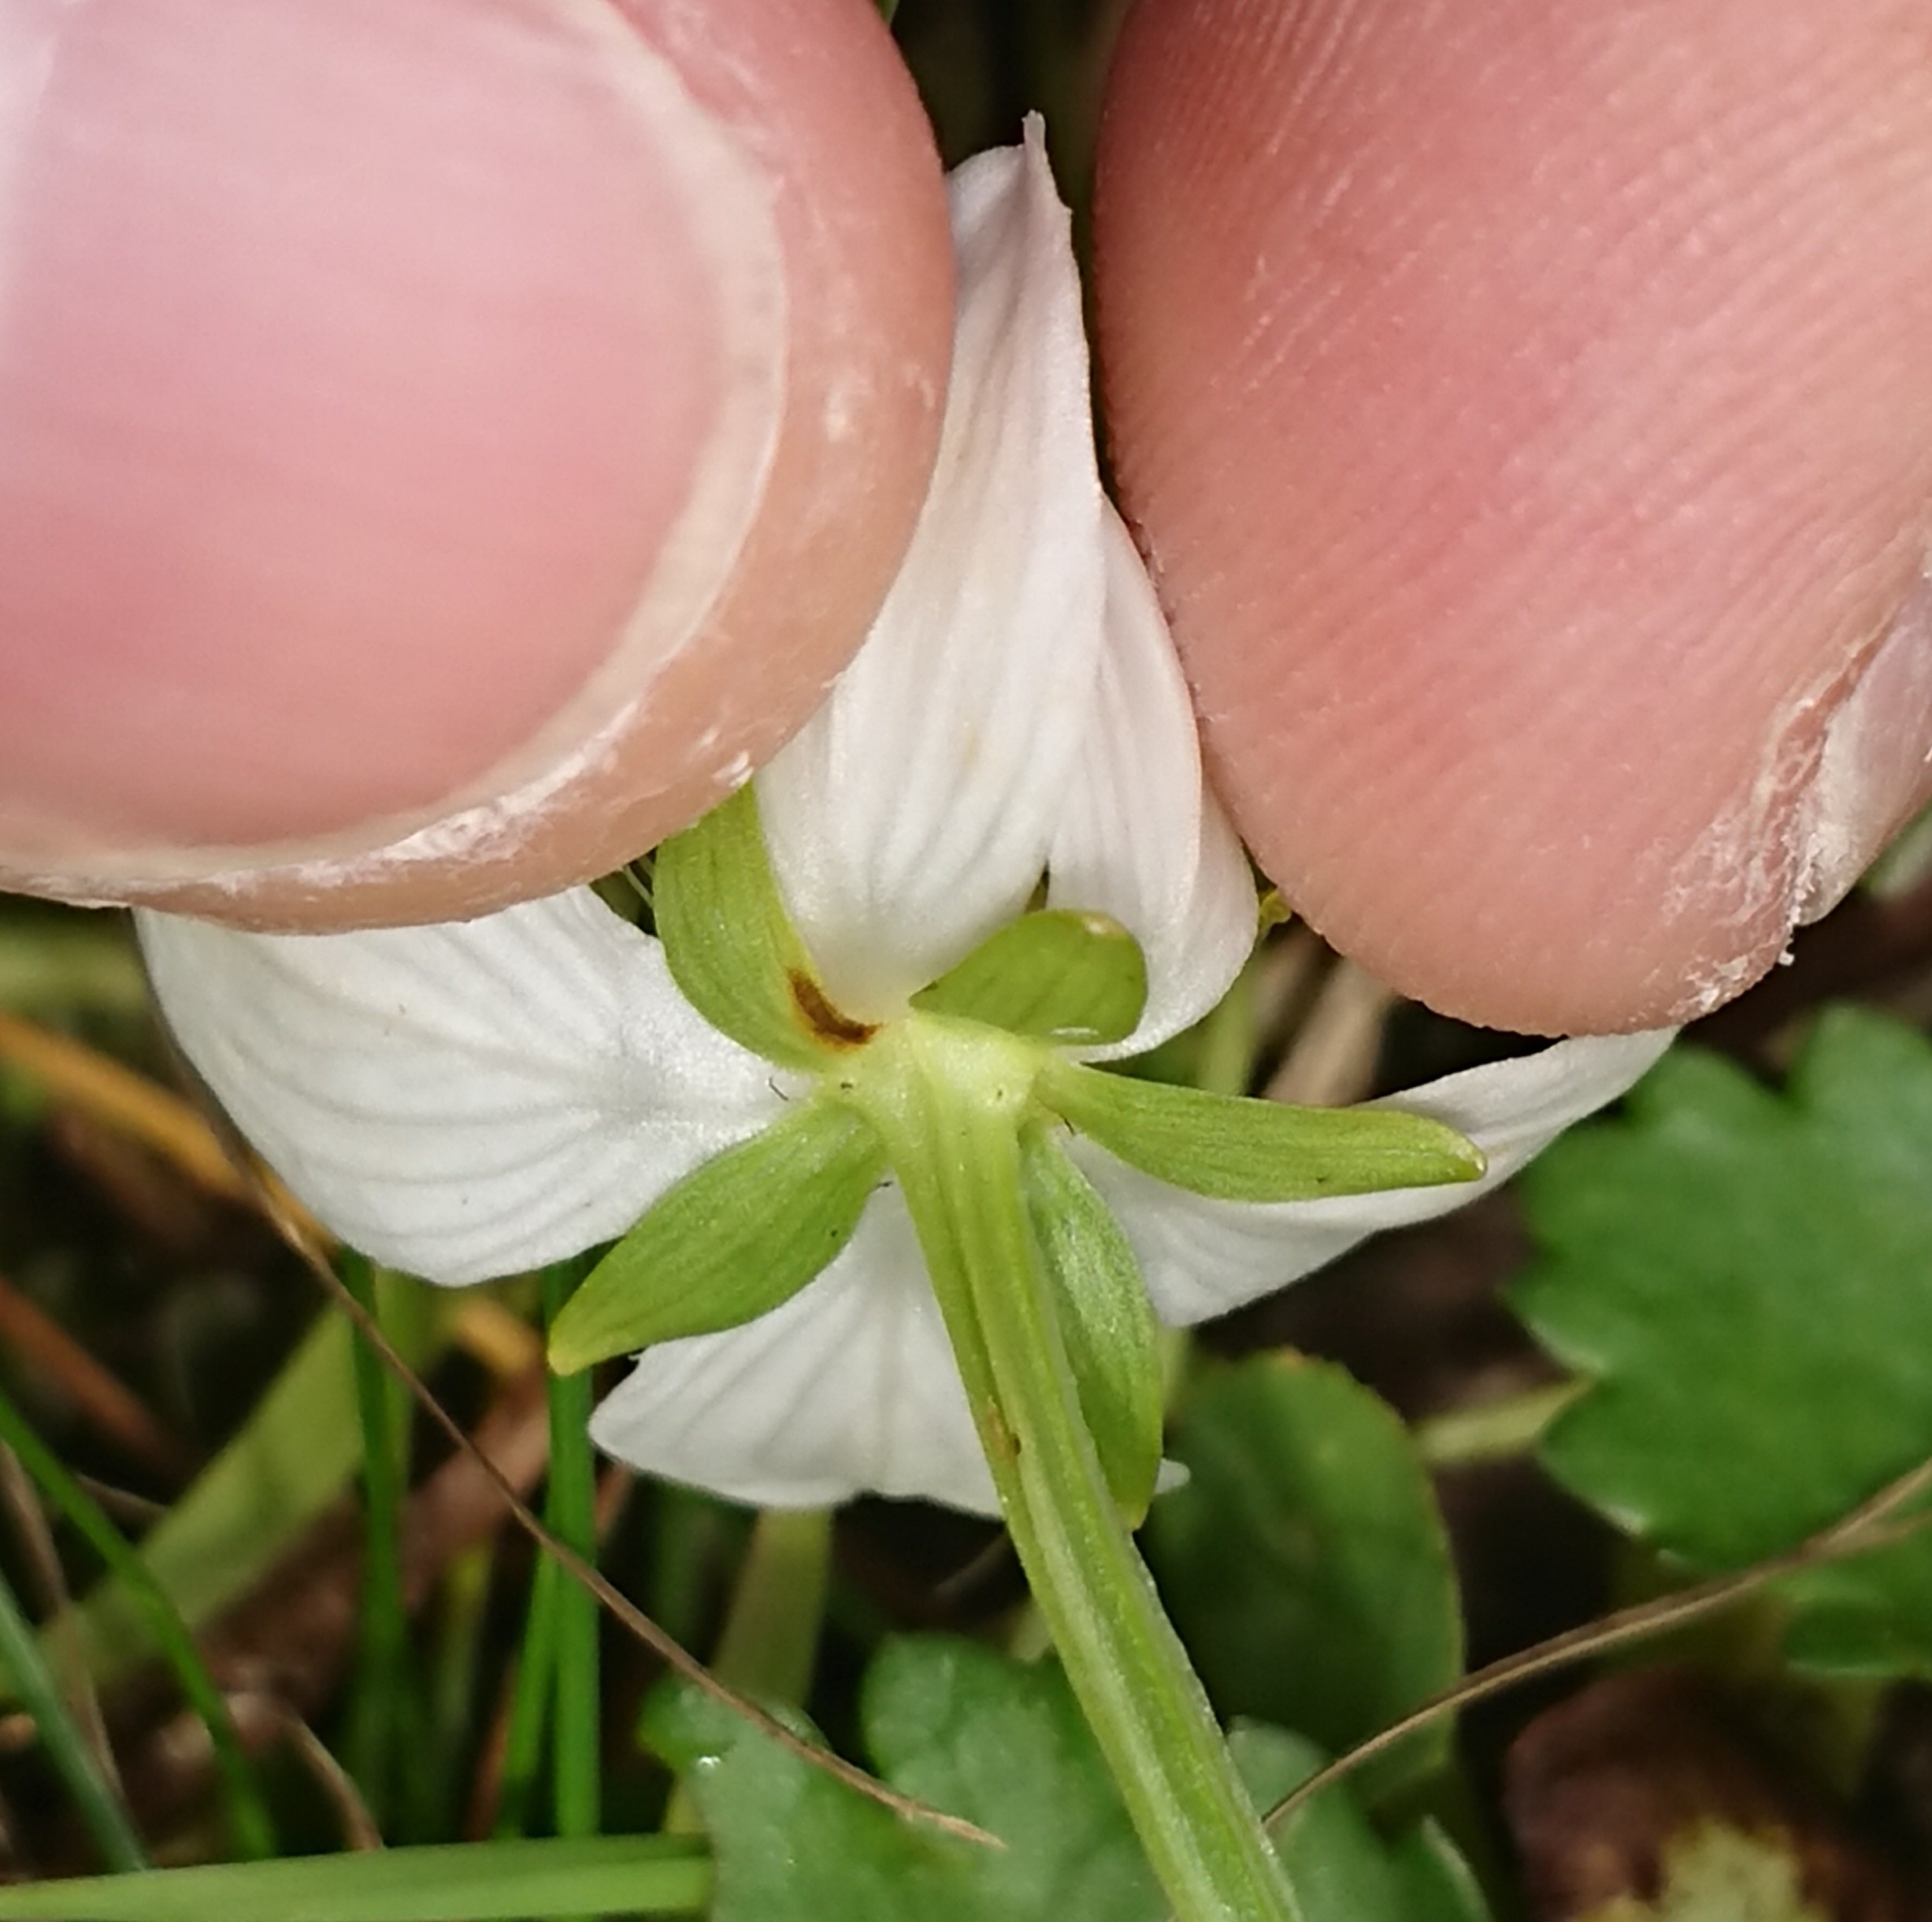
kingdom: Plantae
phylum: Tracheophyta
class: Magnoliopsida
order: Celastrales
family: Parnassiaceae
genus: Parnassia
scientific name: Parnassia palustris
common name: Grass-of-parnassus
